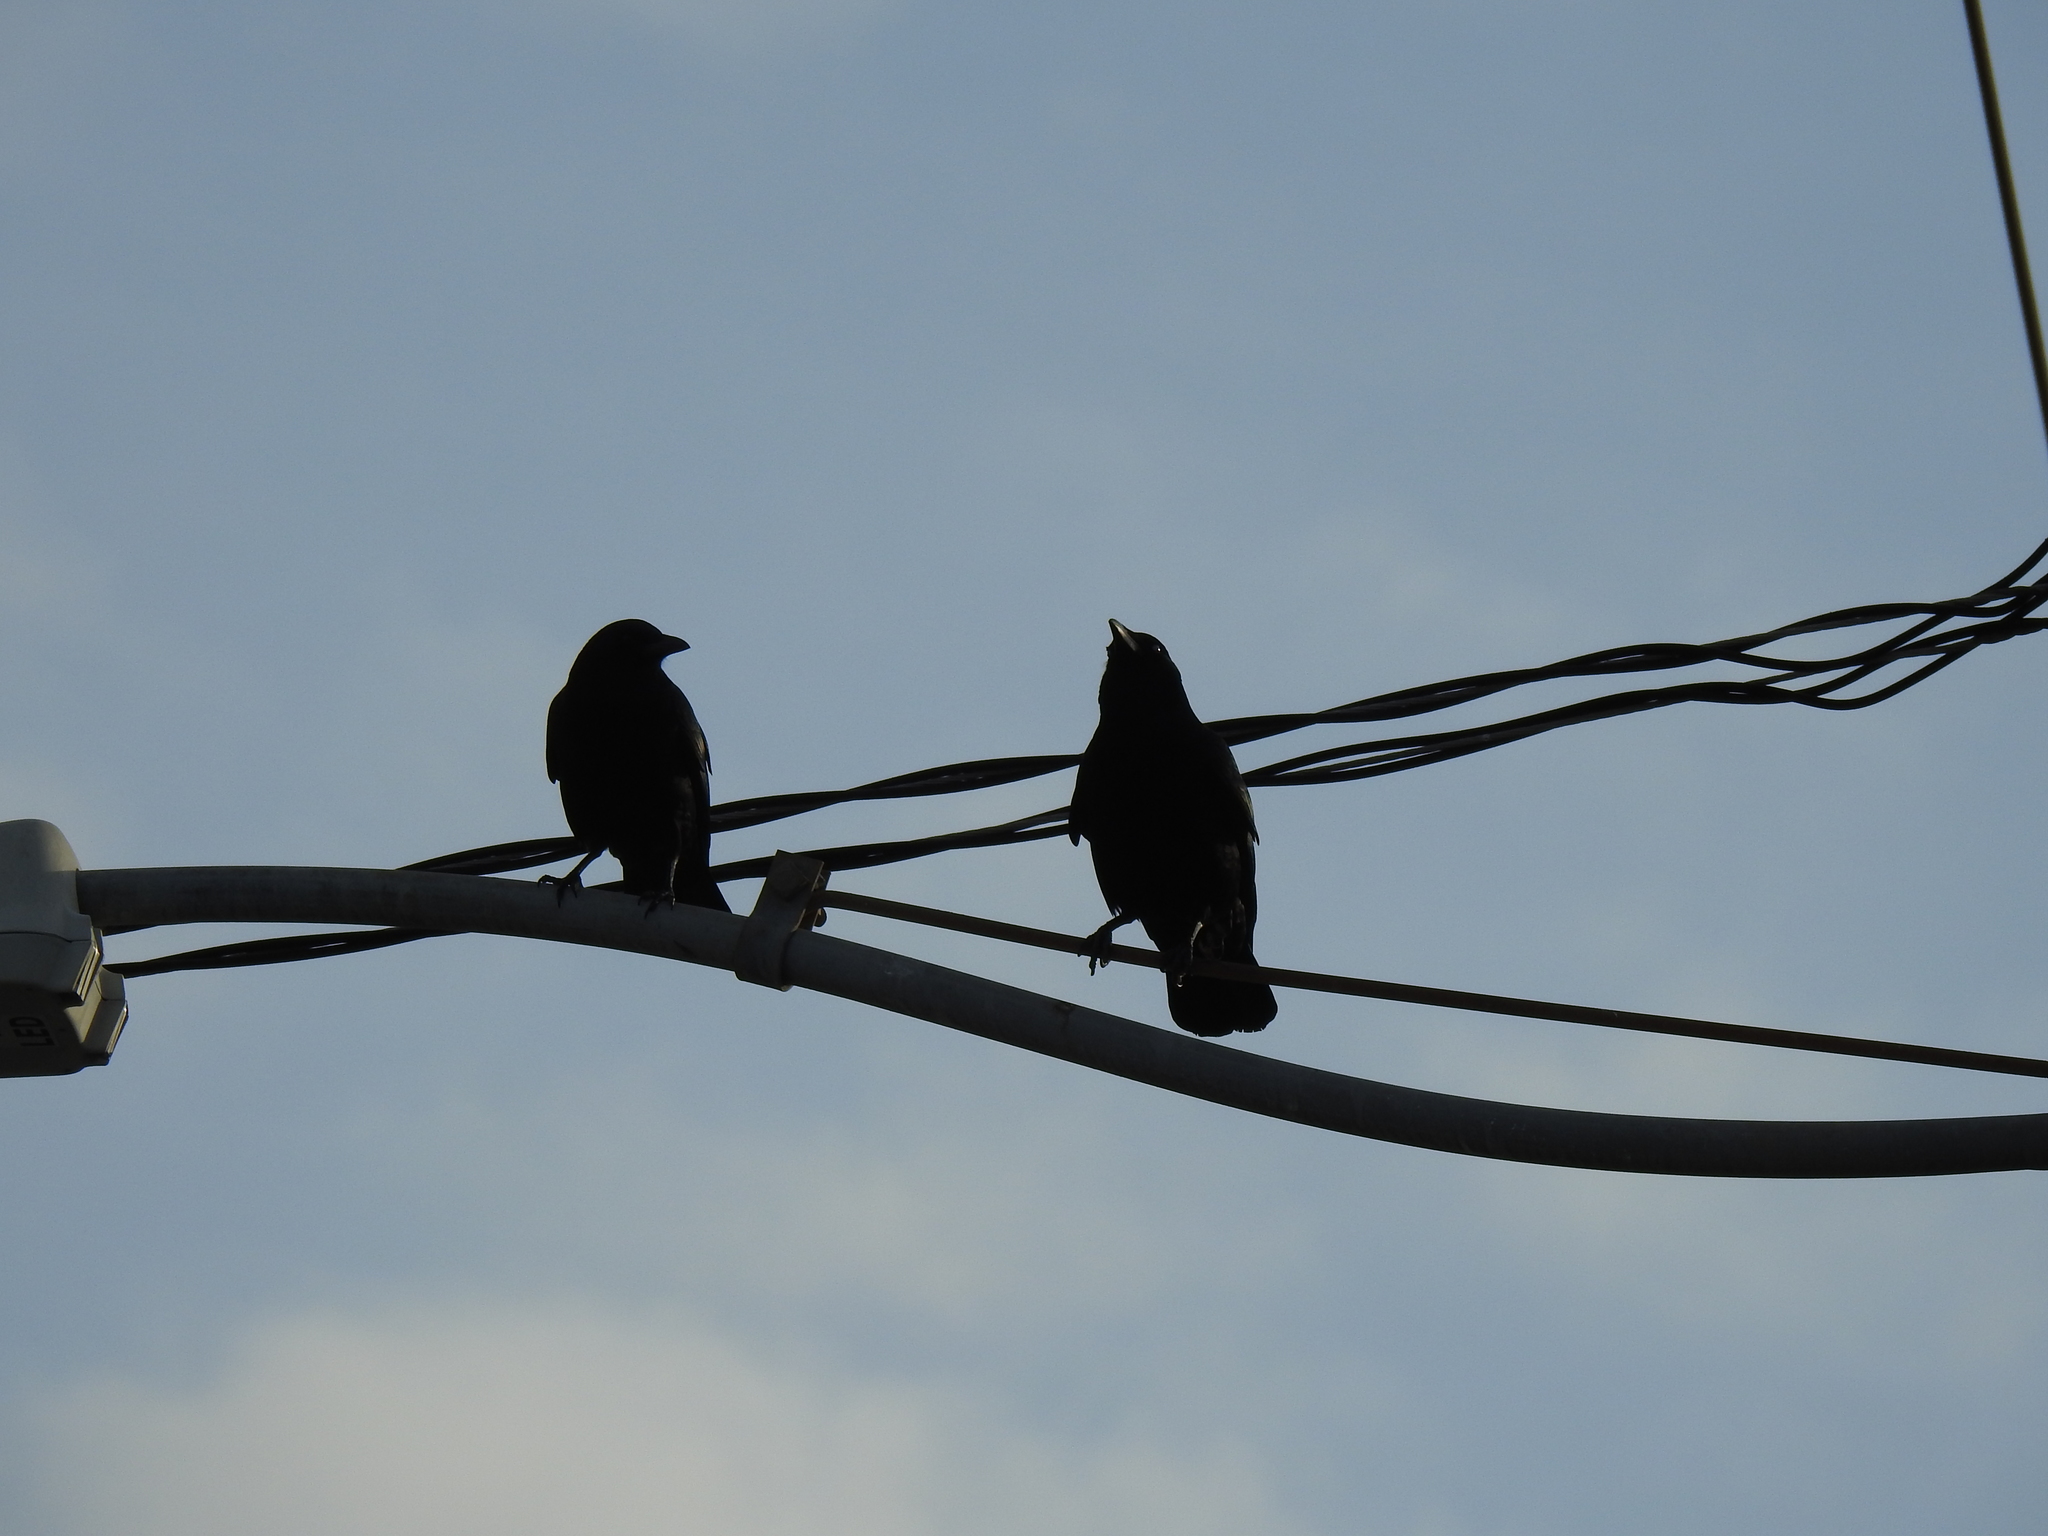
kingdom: Animalia
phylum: Chordata
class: Aves
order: Passeriformes
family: Corvidae
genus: Corvus
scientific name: Corvus brachyrhynchos
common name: American crow
